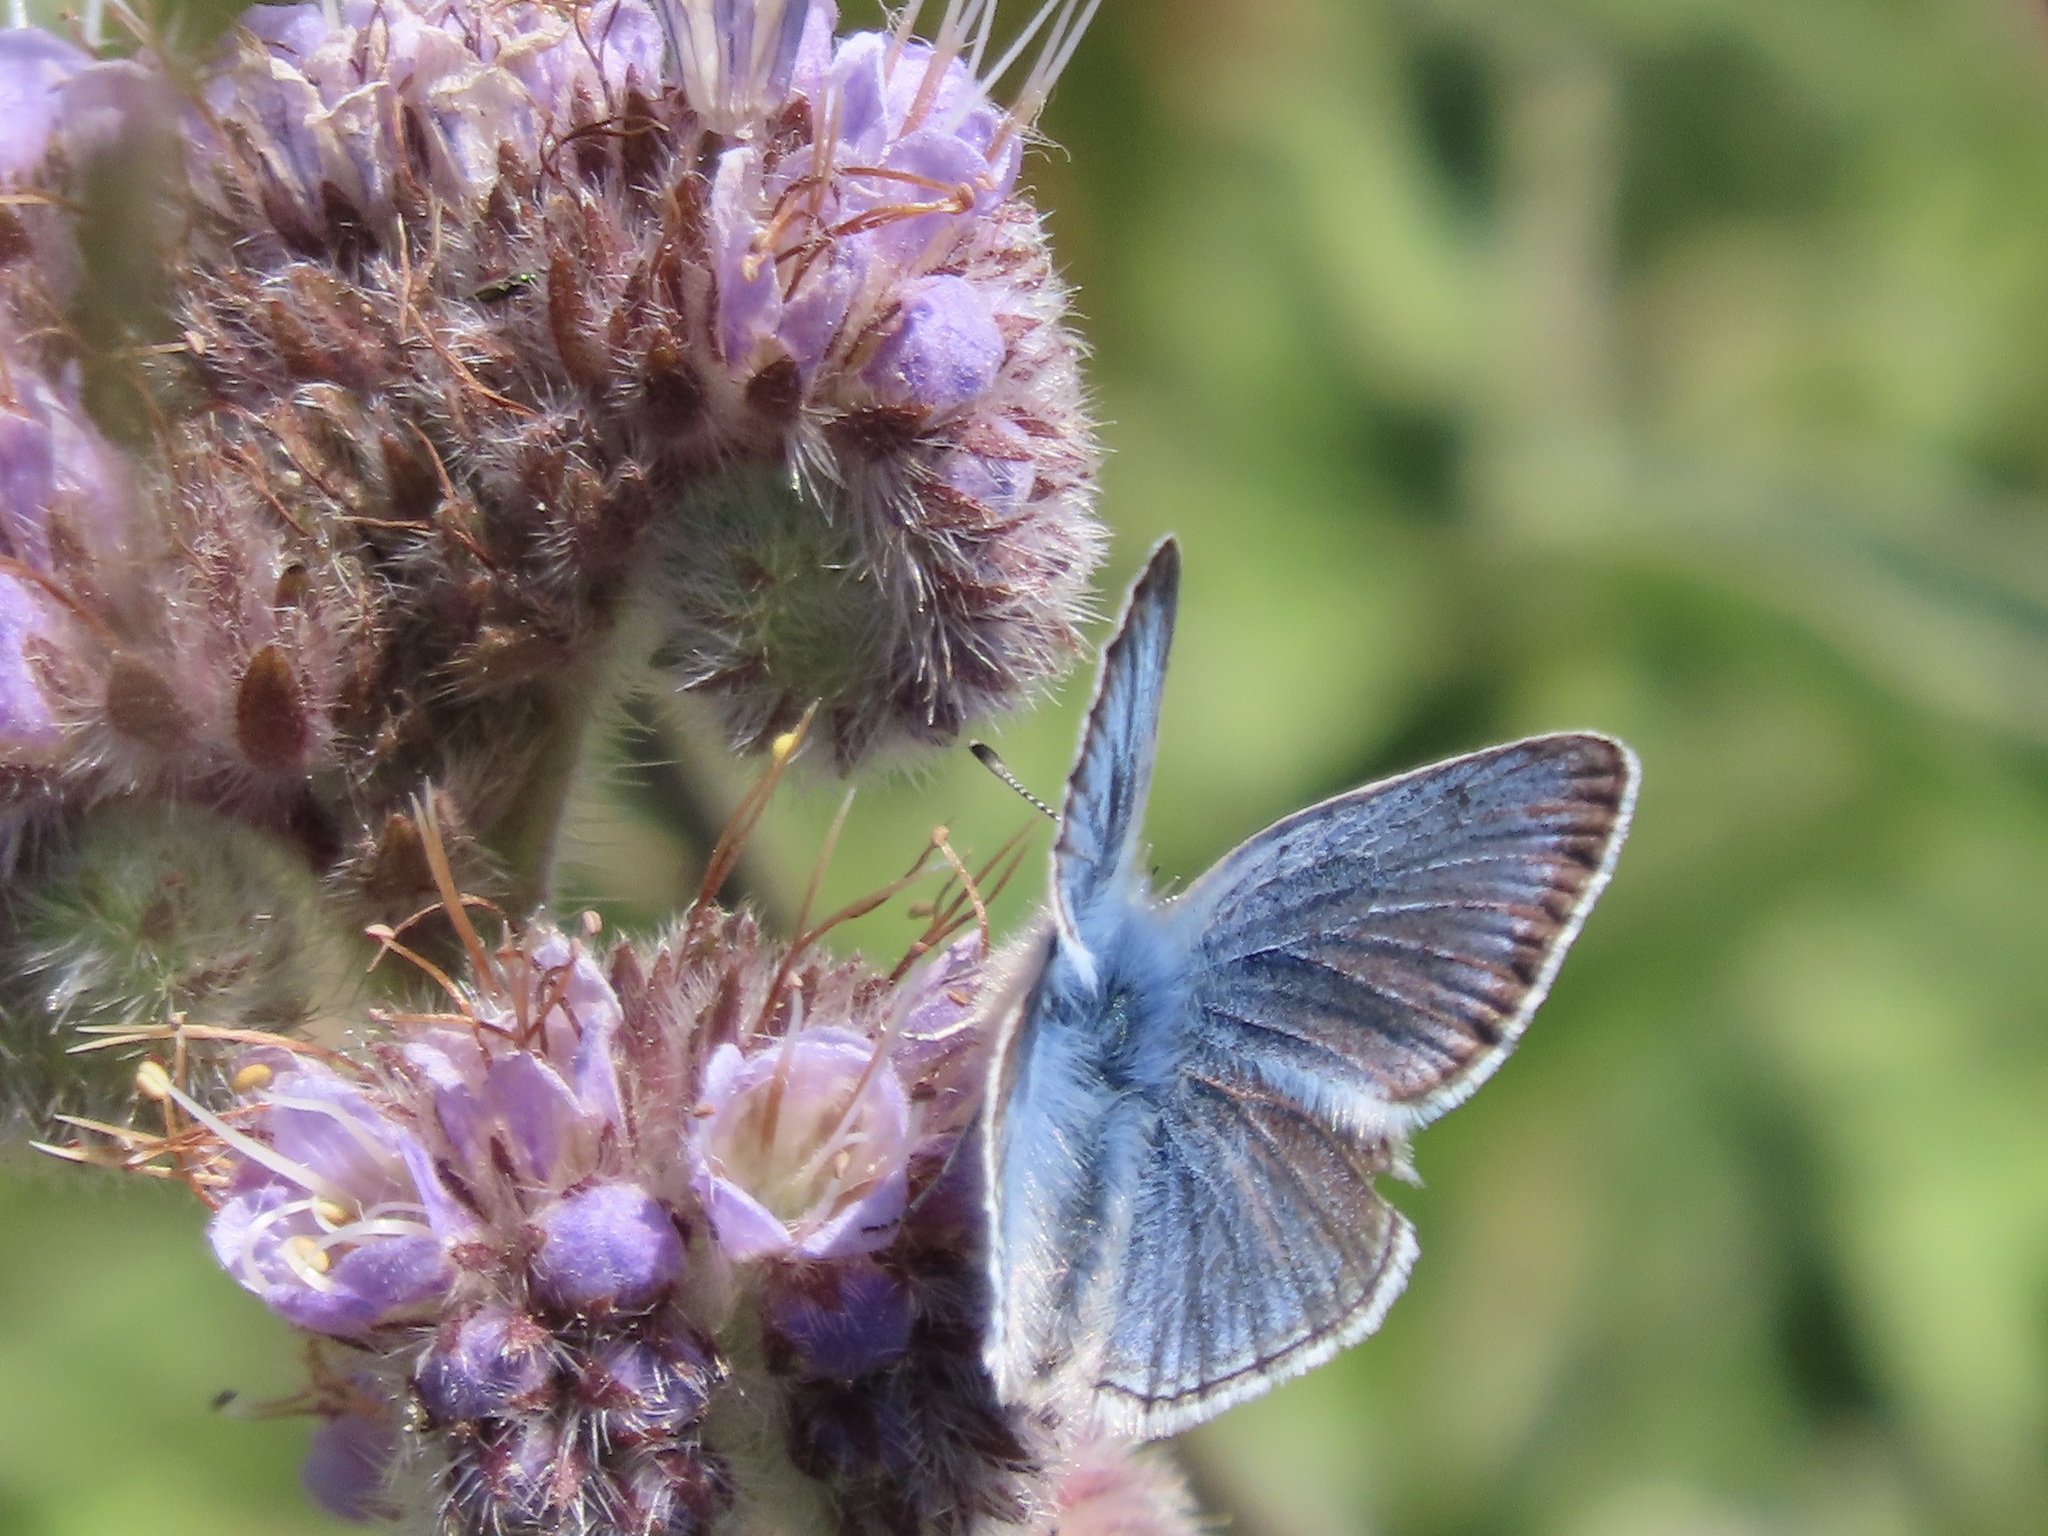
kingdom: Animalia
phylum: Arthropoda
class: Insecta
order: Lepidoptera
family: Lycaenidae
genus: Icaricia
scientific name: Icaricia icarioides
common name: Boisduval's blue
